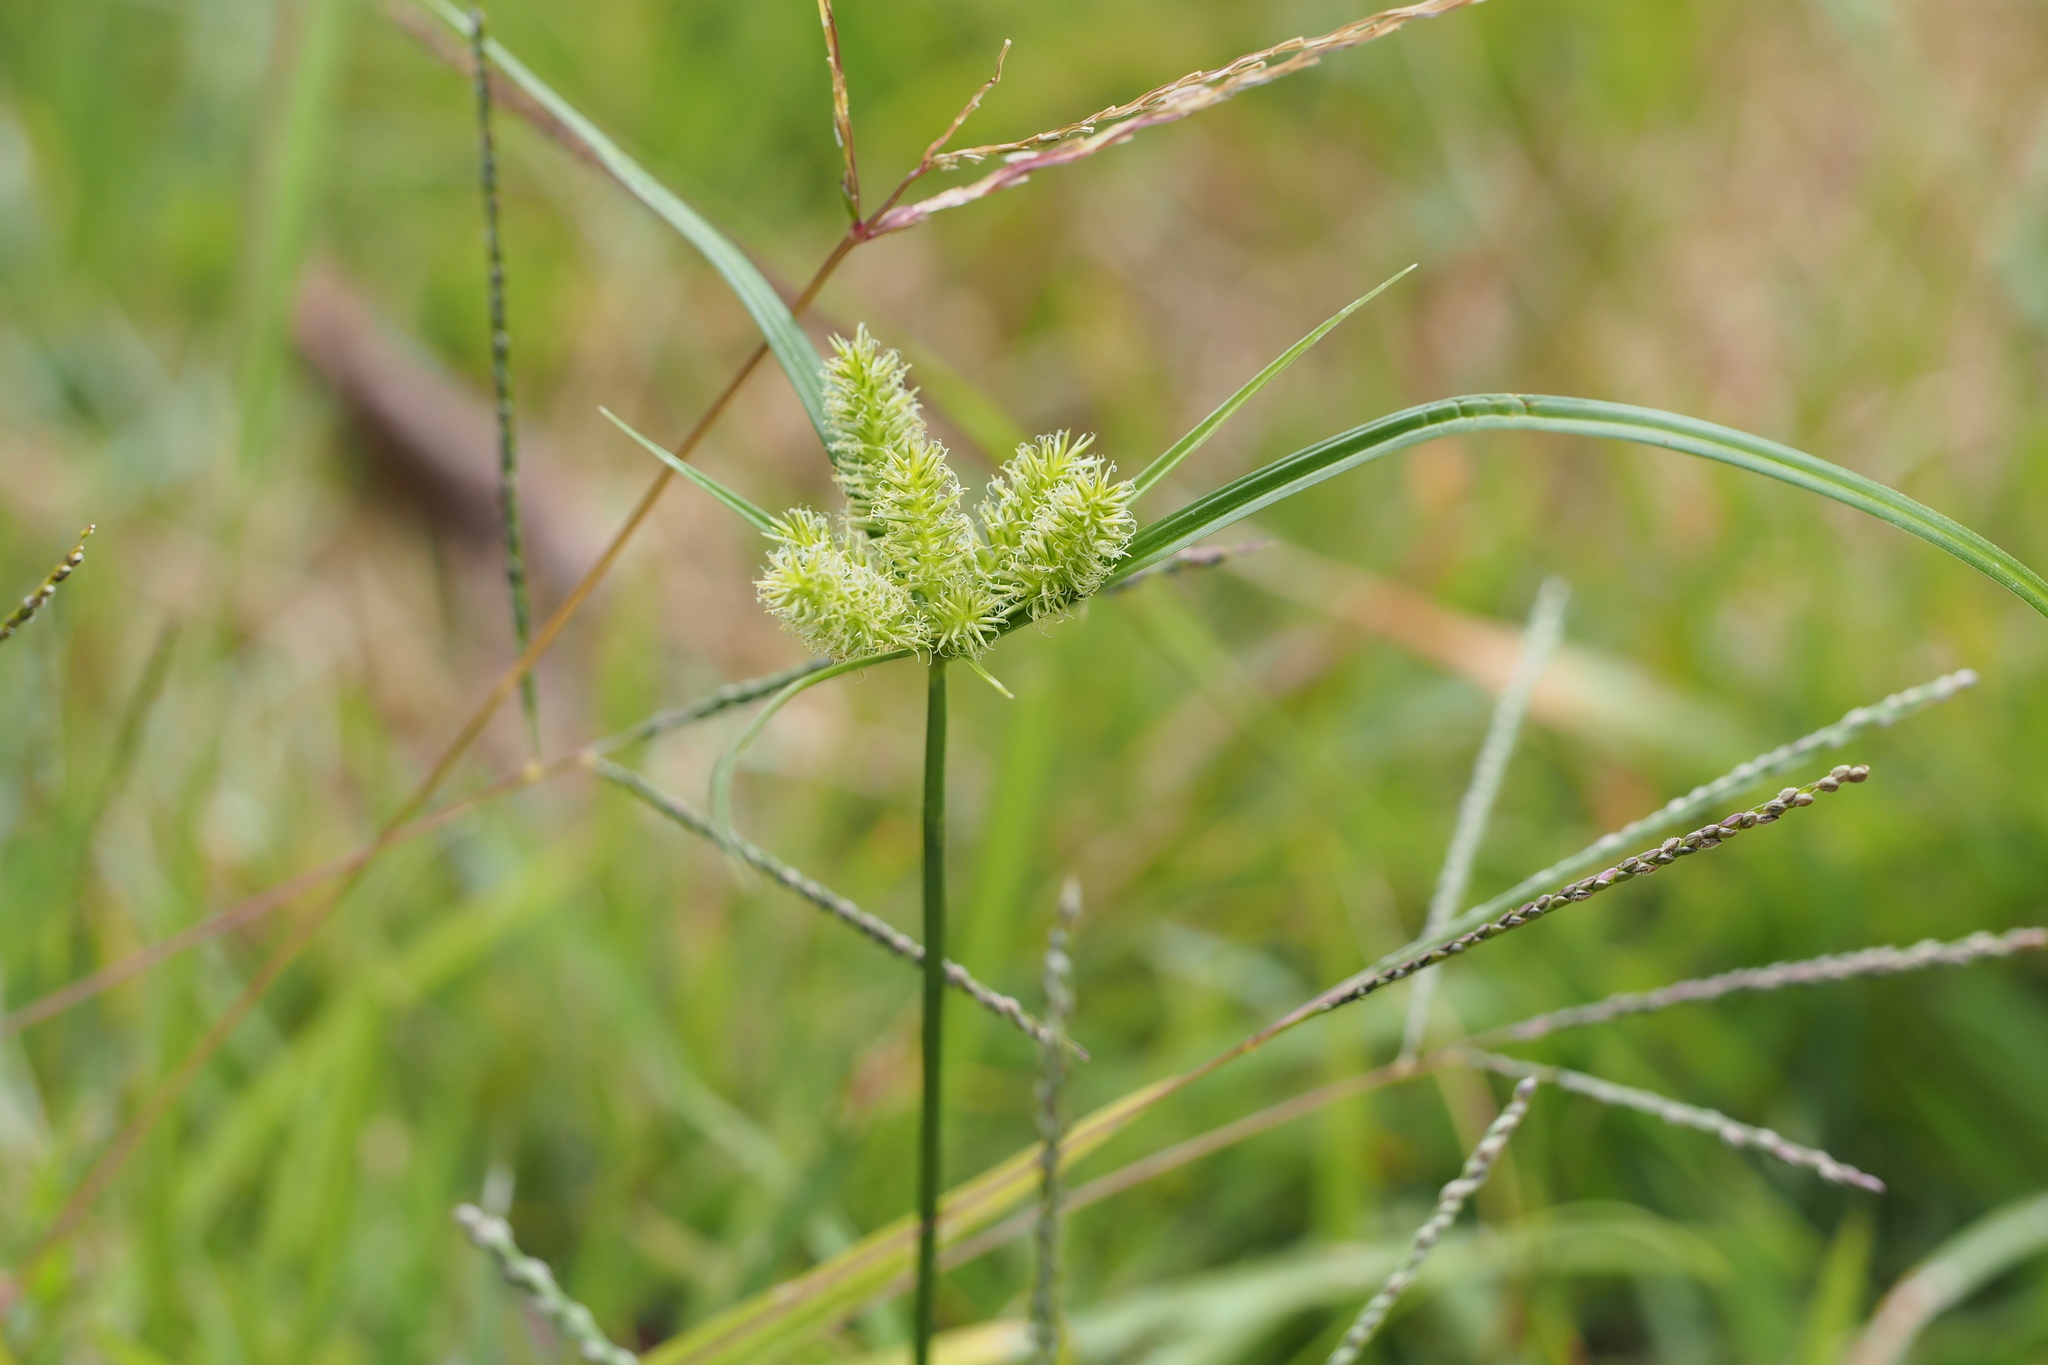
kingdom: Plantae
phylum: Tracheophyta
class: Liliopsida
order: Poales
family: Cyperaceae
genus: Cyperus
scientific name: Cyperus cyperoides
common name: Pacific island flat sedge
